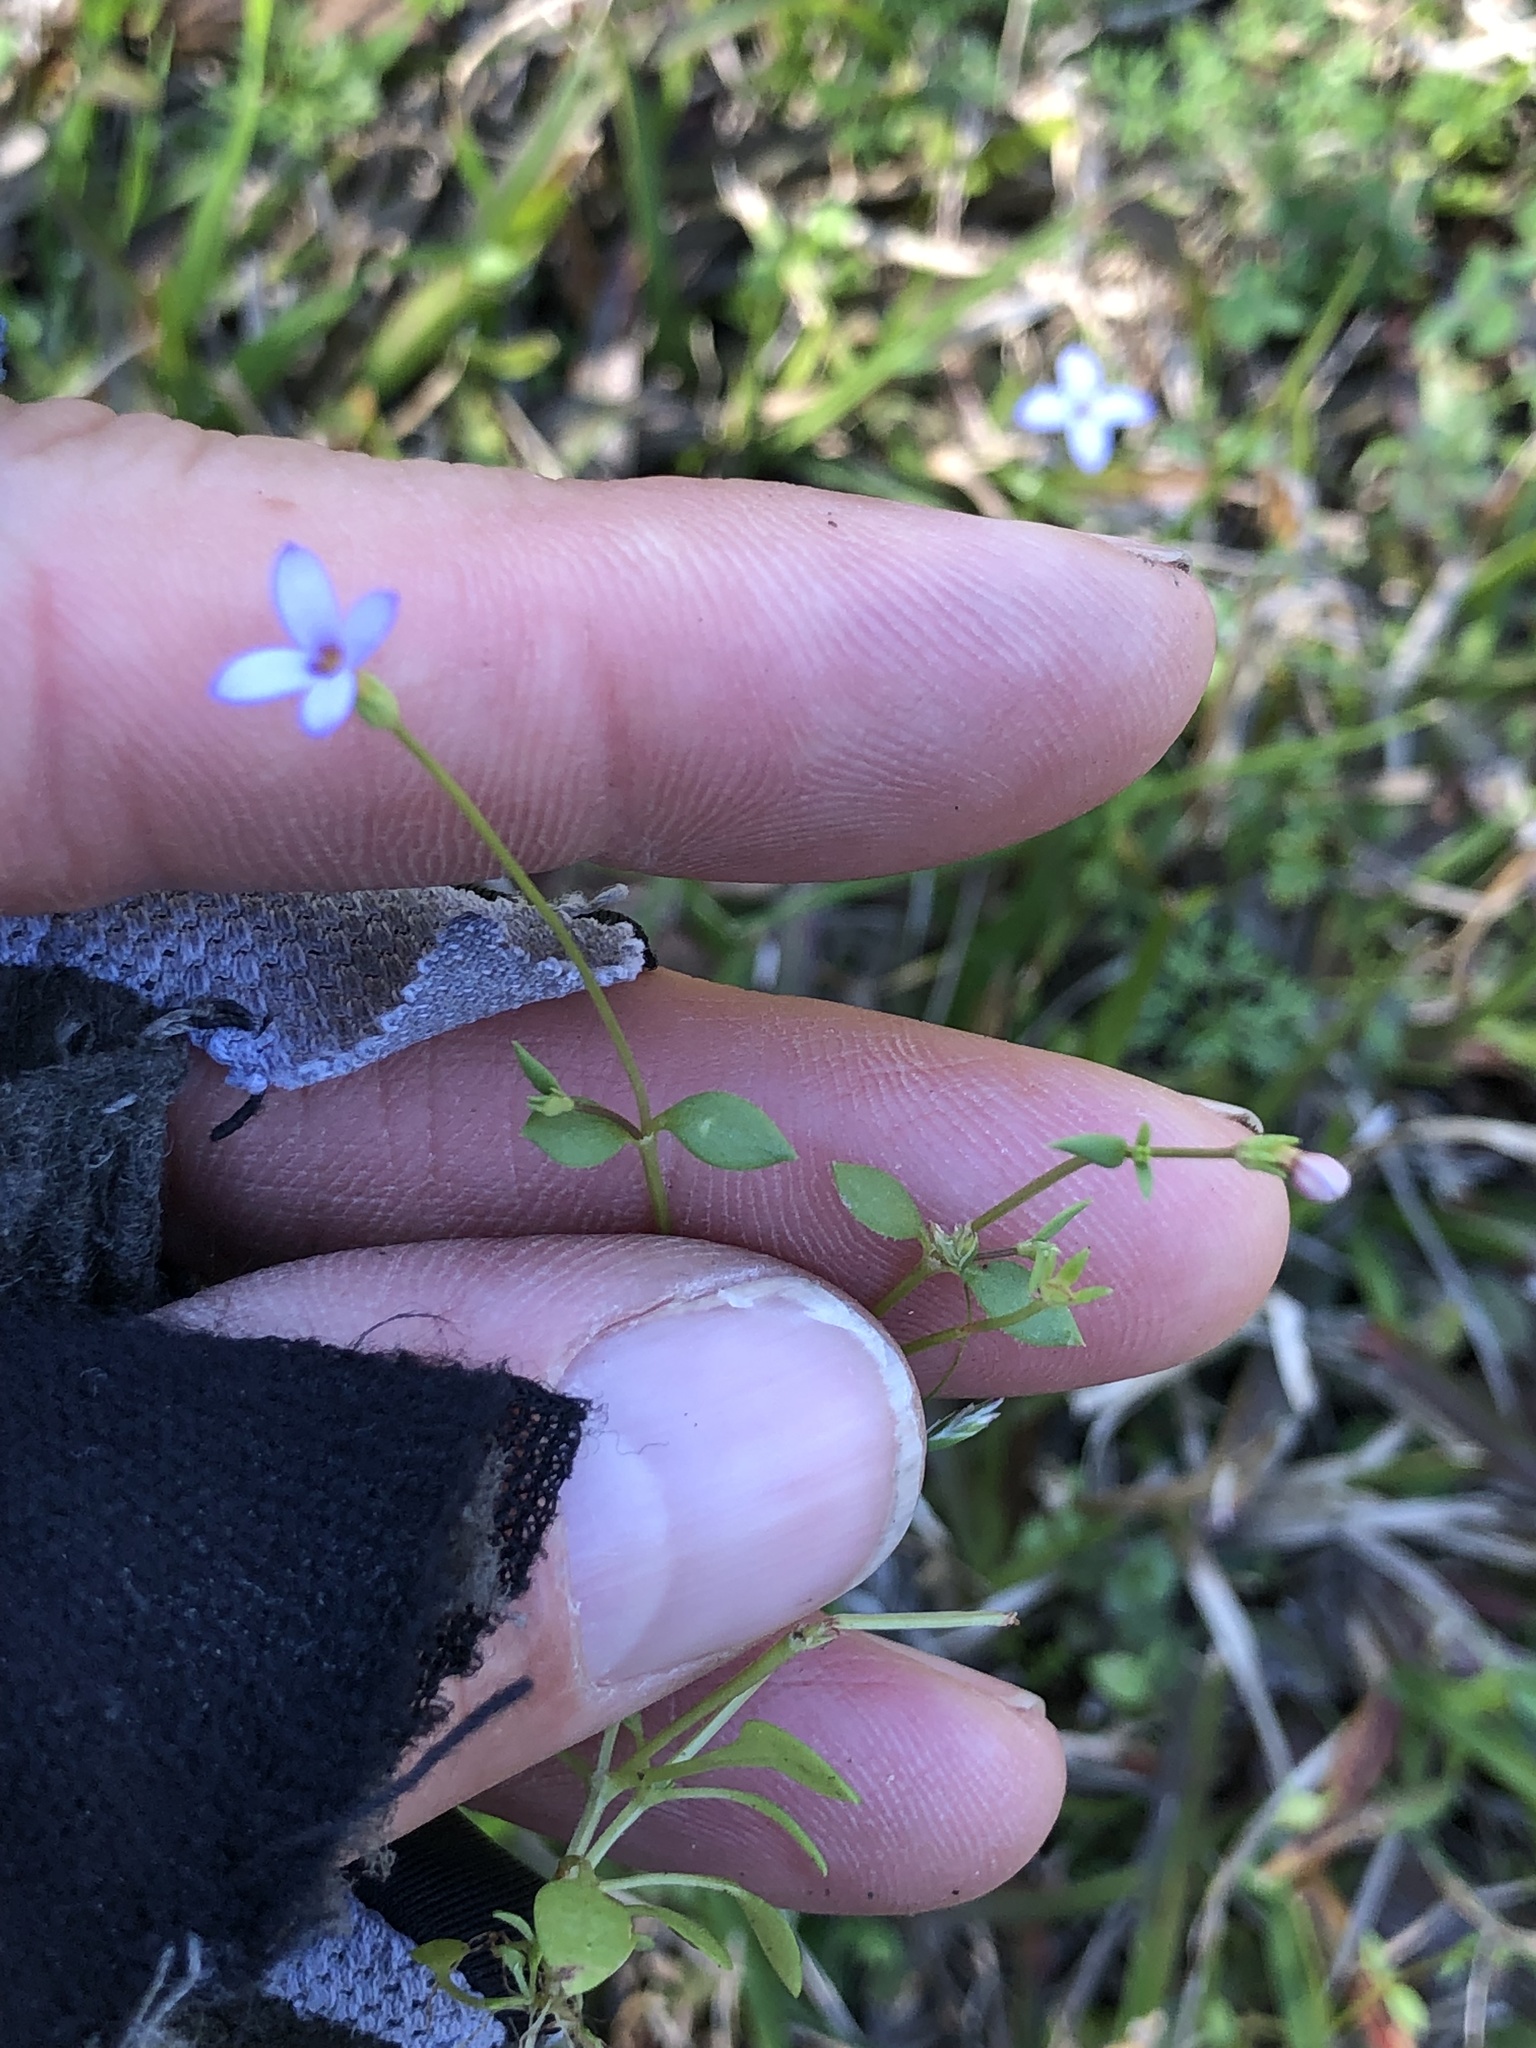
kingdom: Plantae
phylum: Tracheophyta
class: Magnoliopsida
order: Gentianales
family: Rubiaceae
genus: Houstonia
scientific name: Houstonia pusilla
